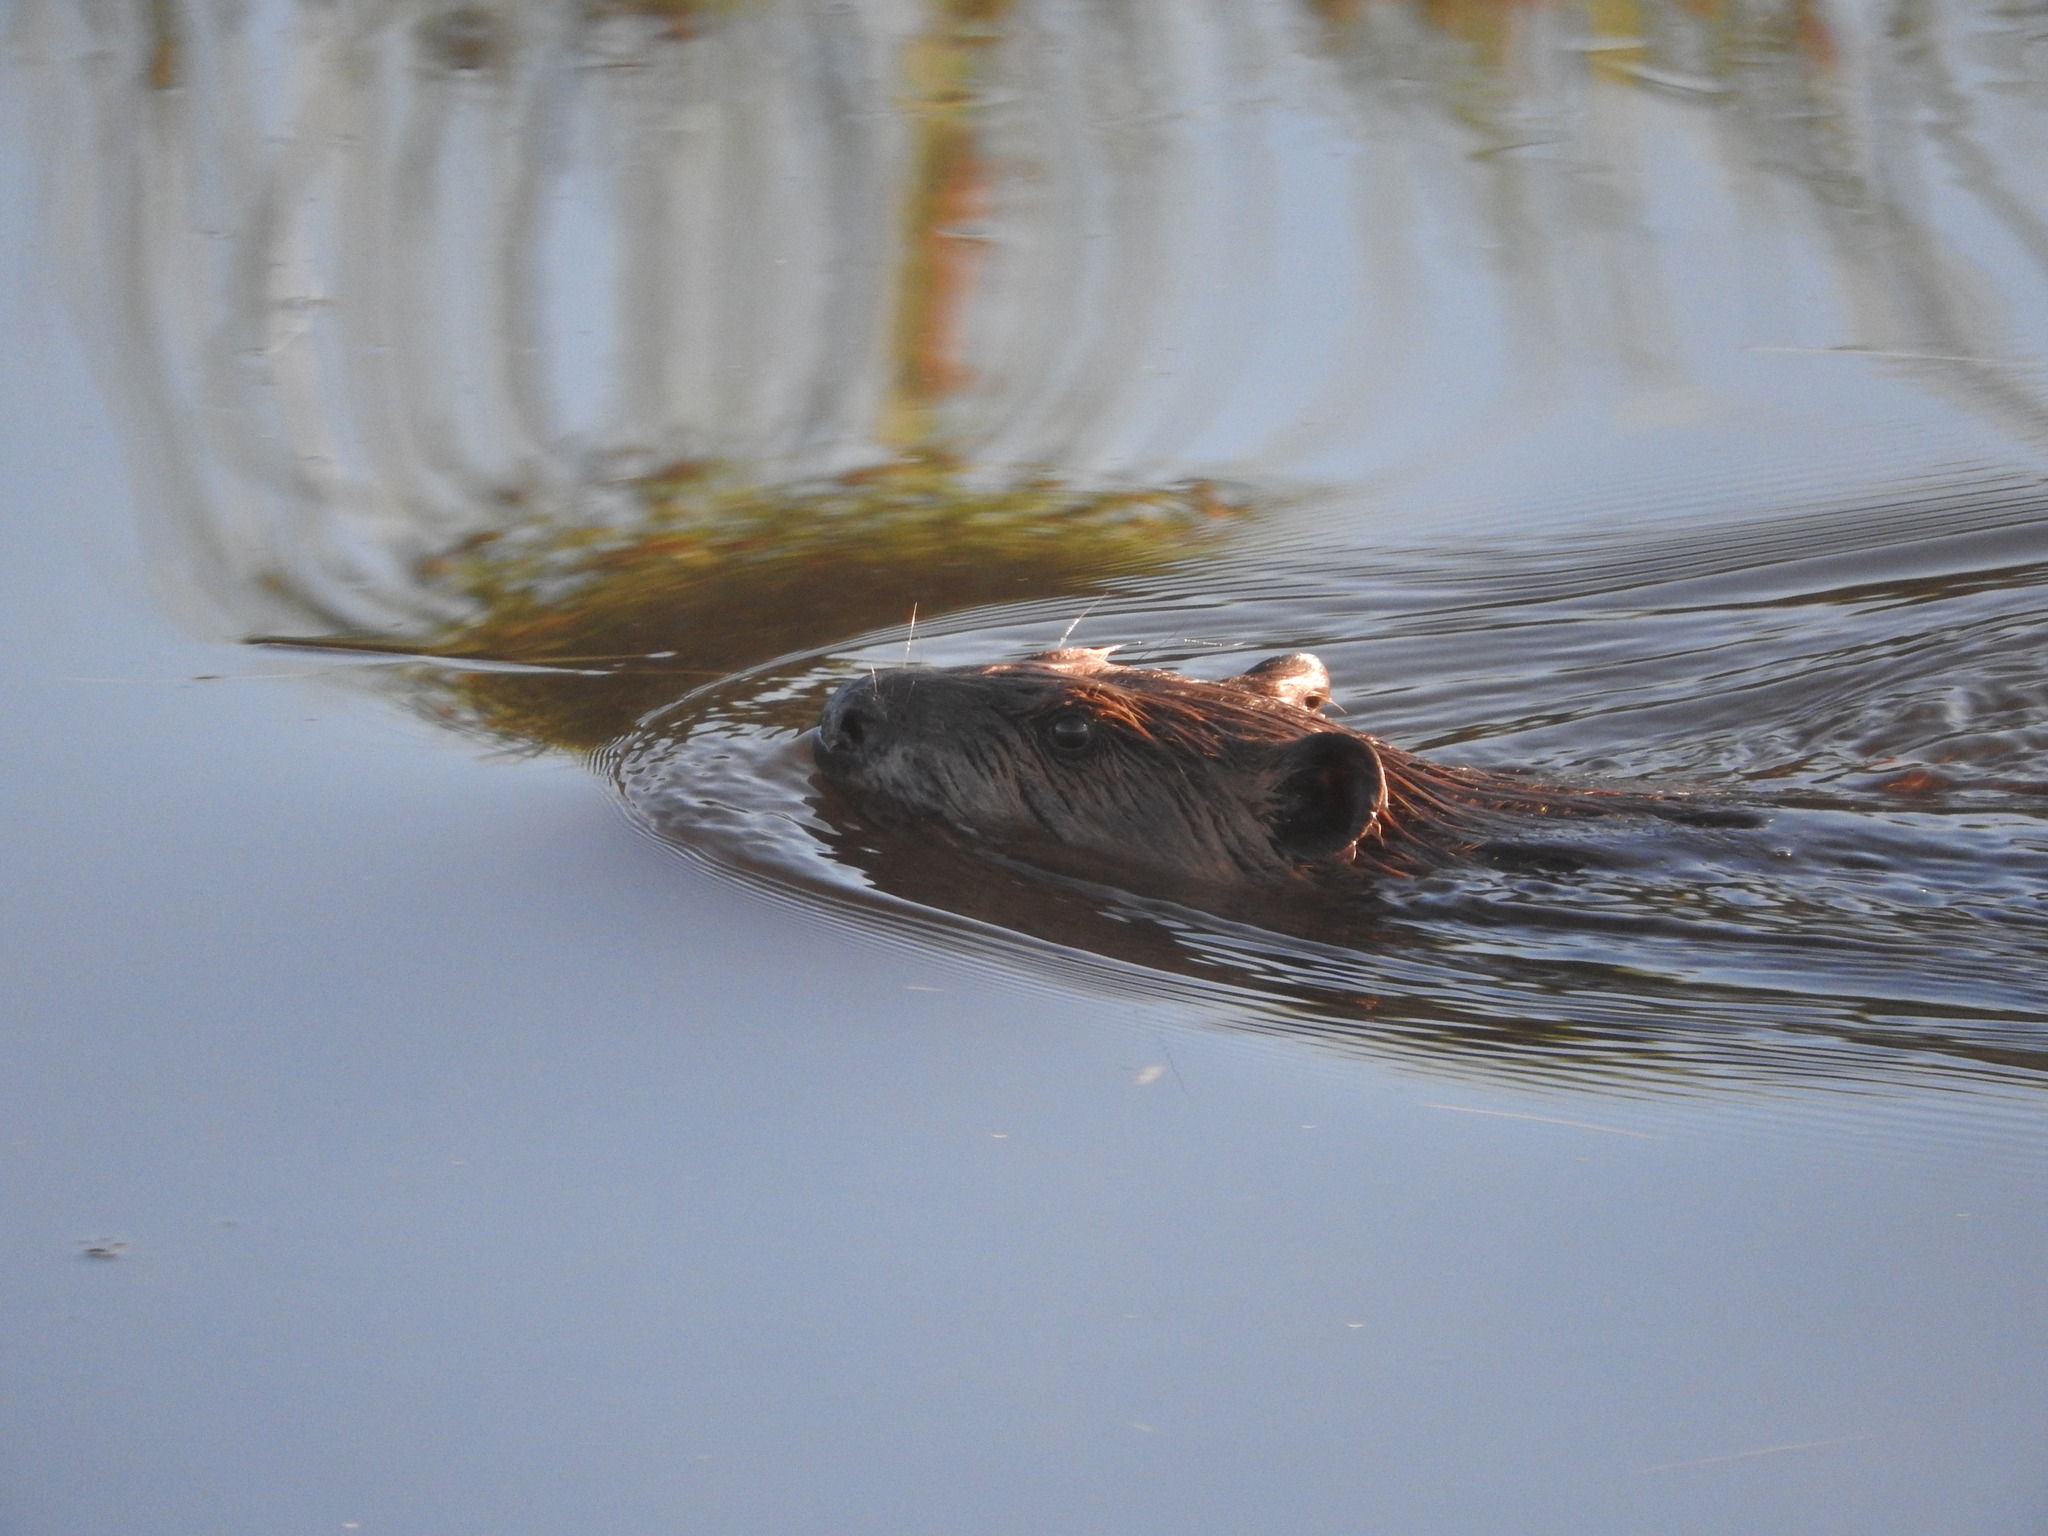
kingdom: Animalia
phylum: Chordata
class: Mammalia
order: Rodentia
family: Castoridae
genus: Castor
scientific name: Castor canadensis
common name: American beaver
